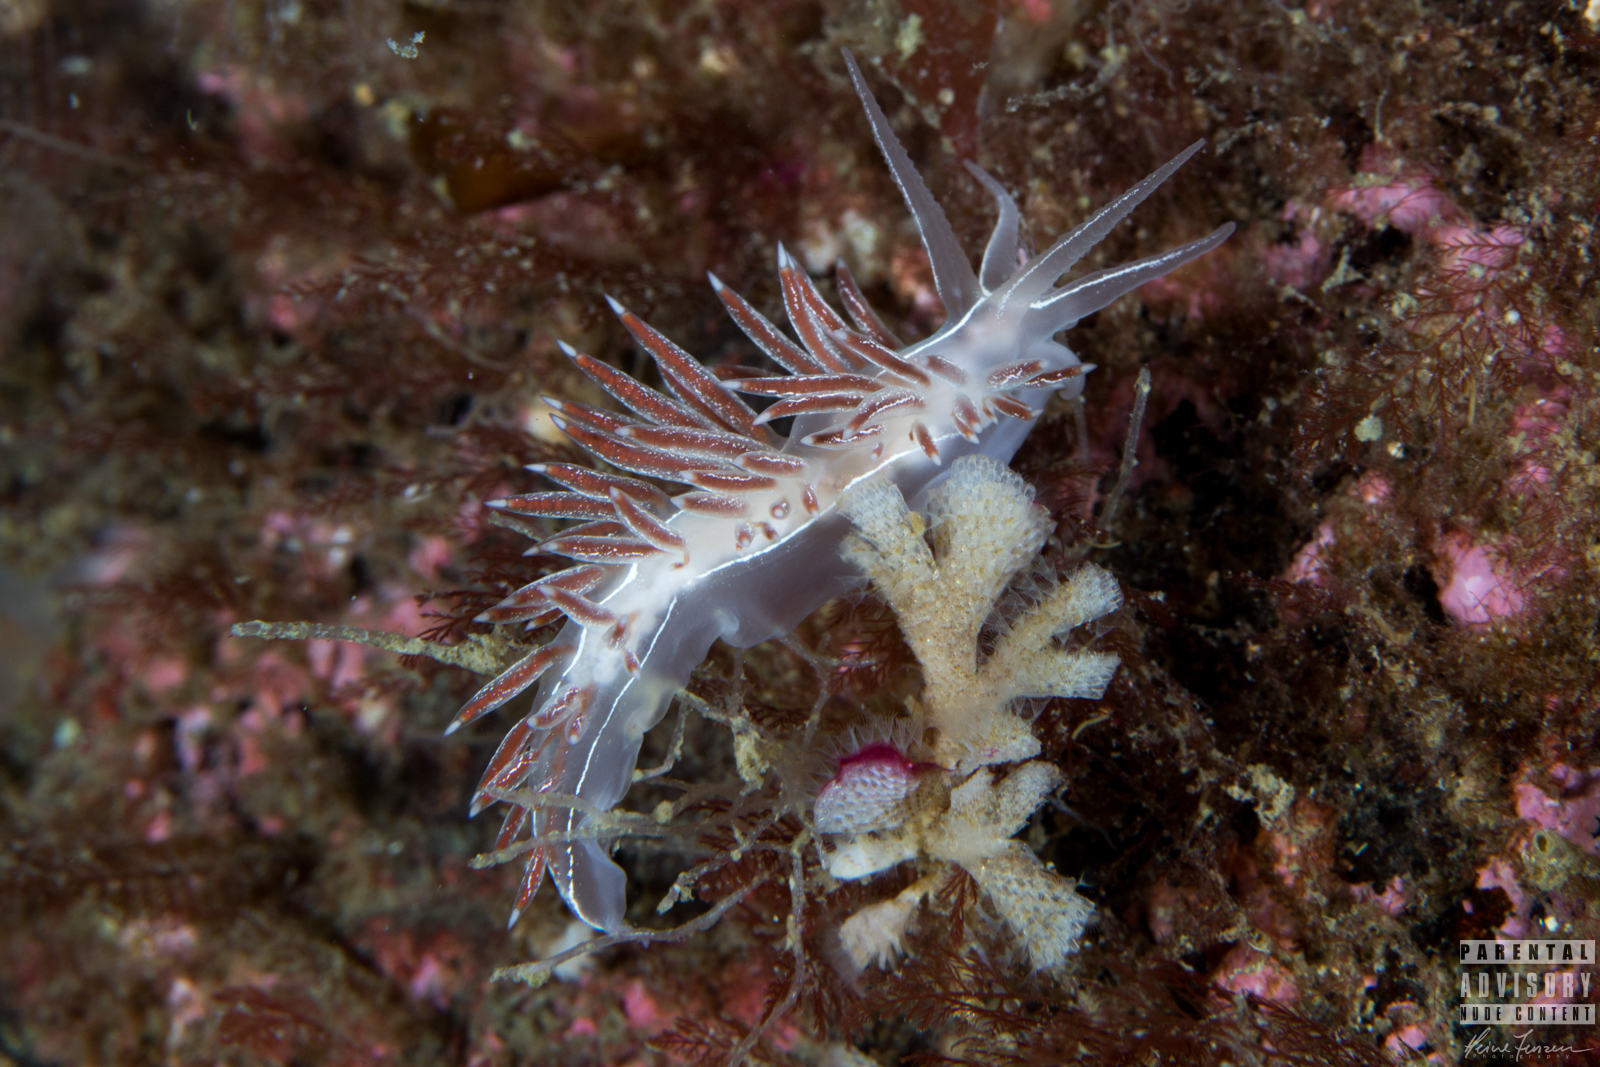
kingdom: Animalia
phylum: Mollusca
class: Gastropoda
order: Nudibranchia
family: Coryphellidae
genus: Coryphella
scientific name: Coryphella chriskaugei
